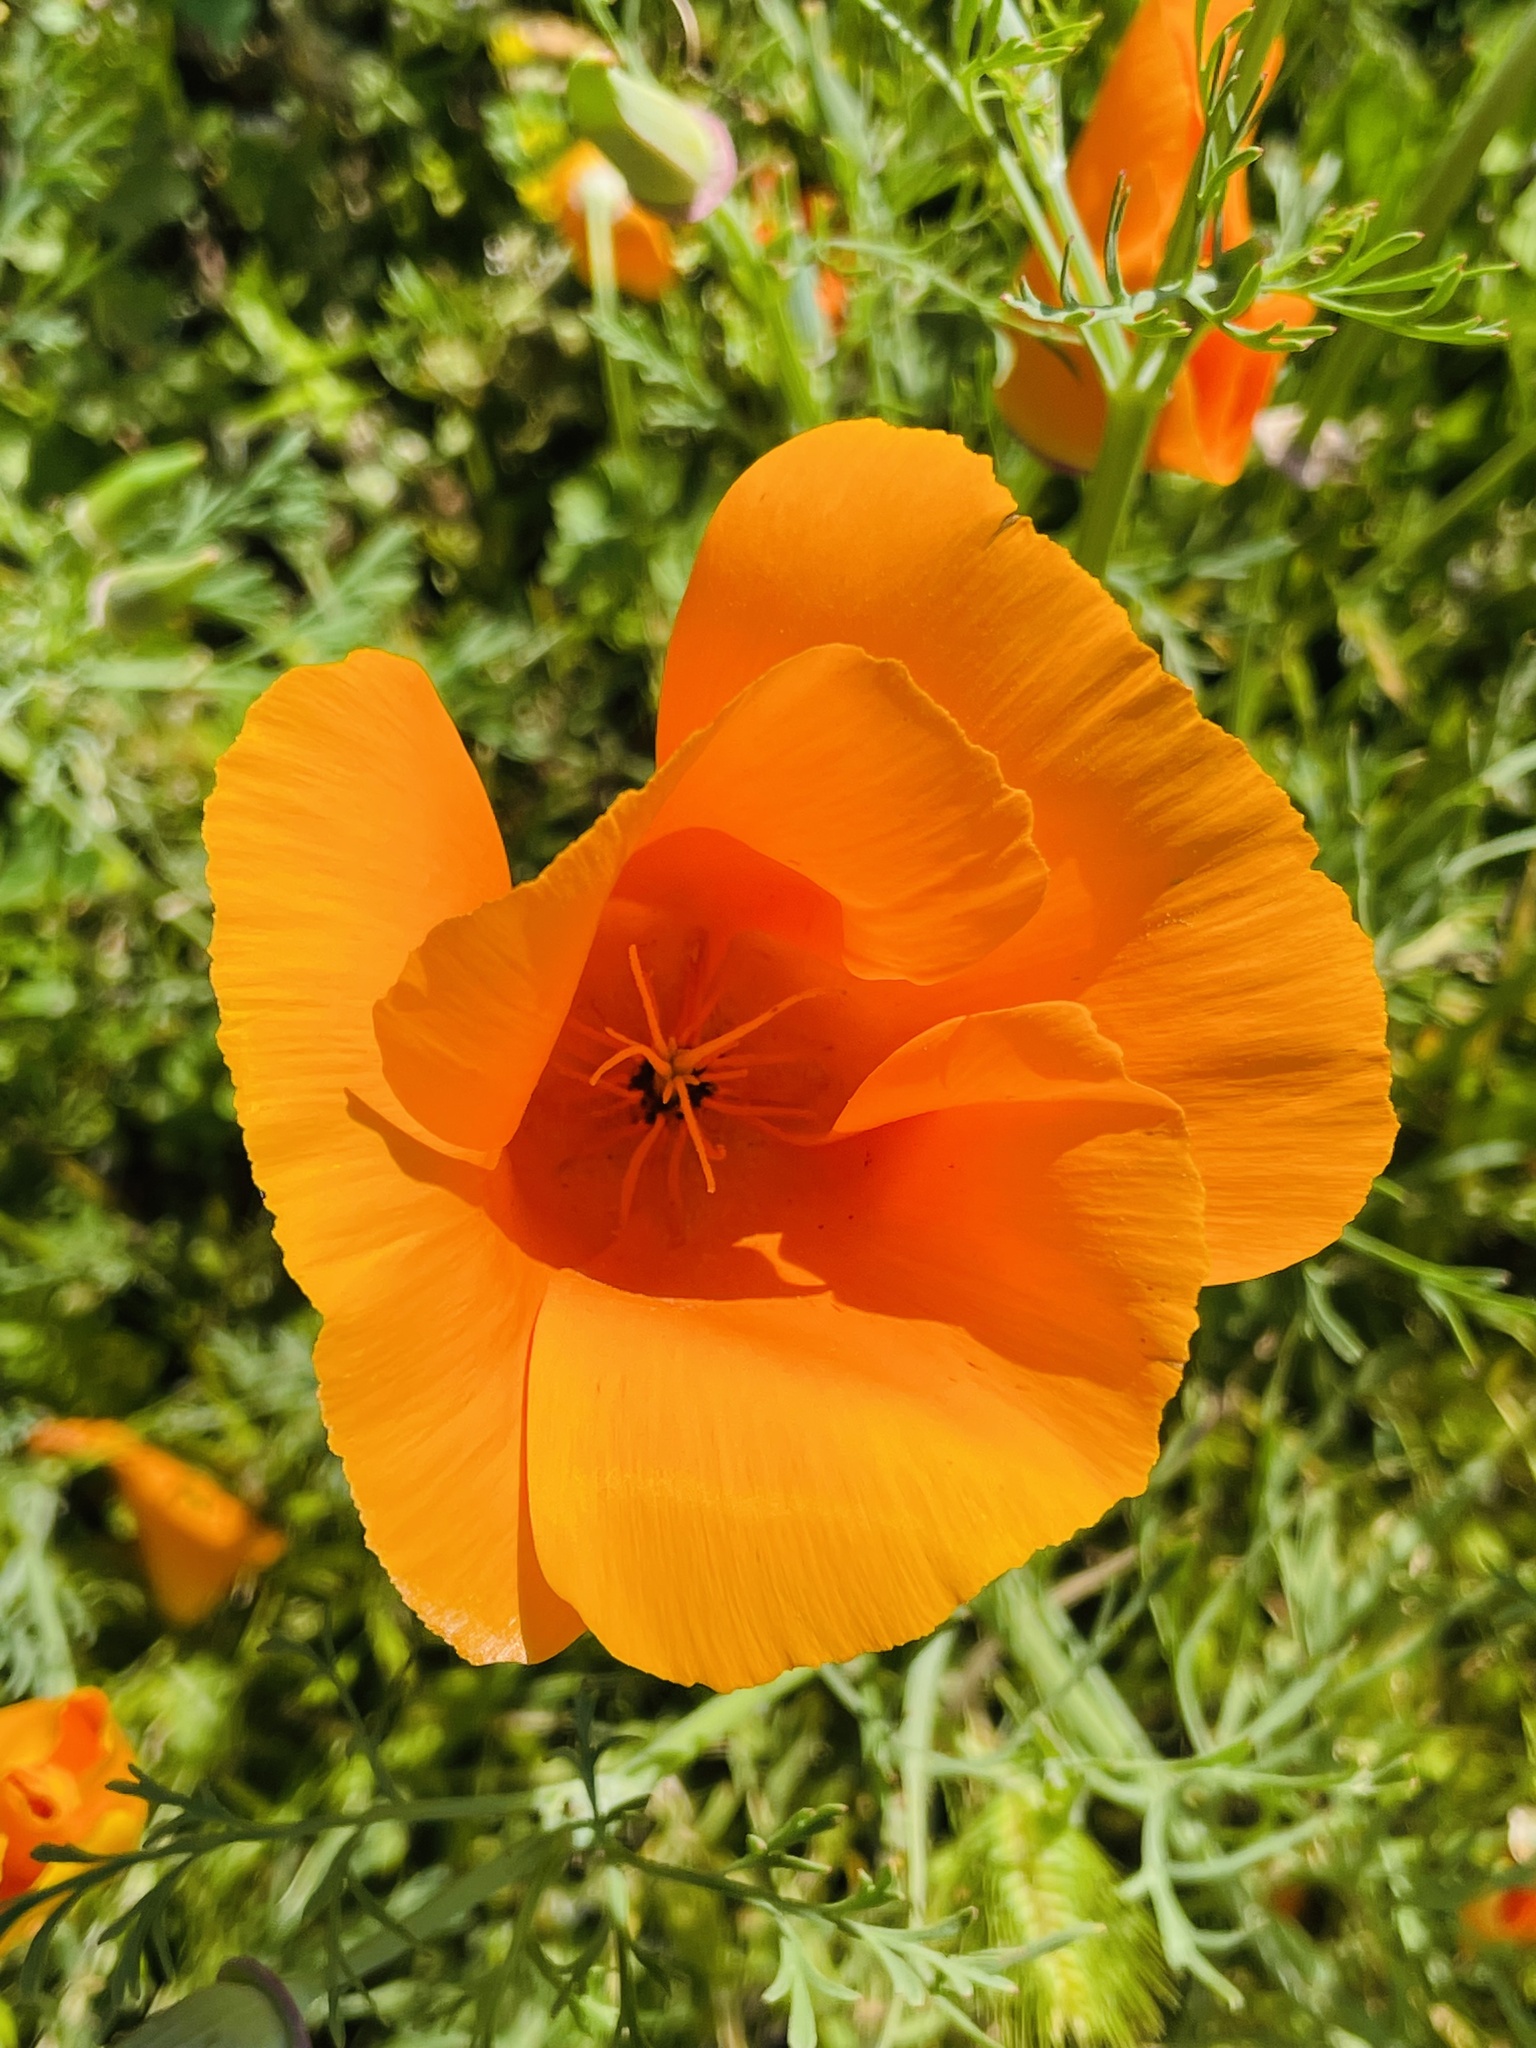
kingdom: Plantae
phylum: Tracheophyta
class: Magnoliopsida
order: Ranunculales
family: Papaveraceae
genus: Eschscholzia
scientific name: Eschscholzia californica
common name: California poppy
